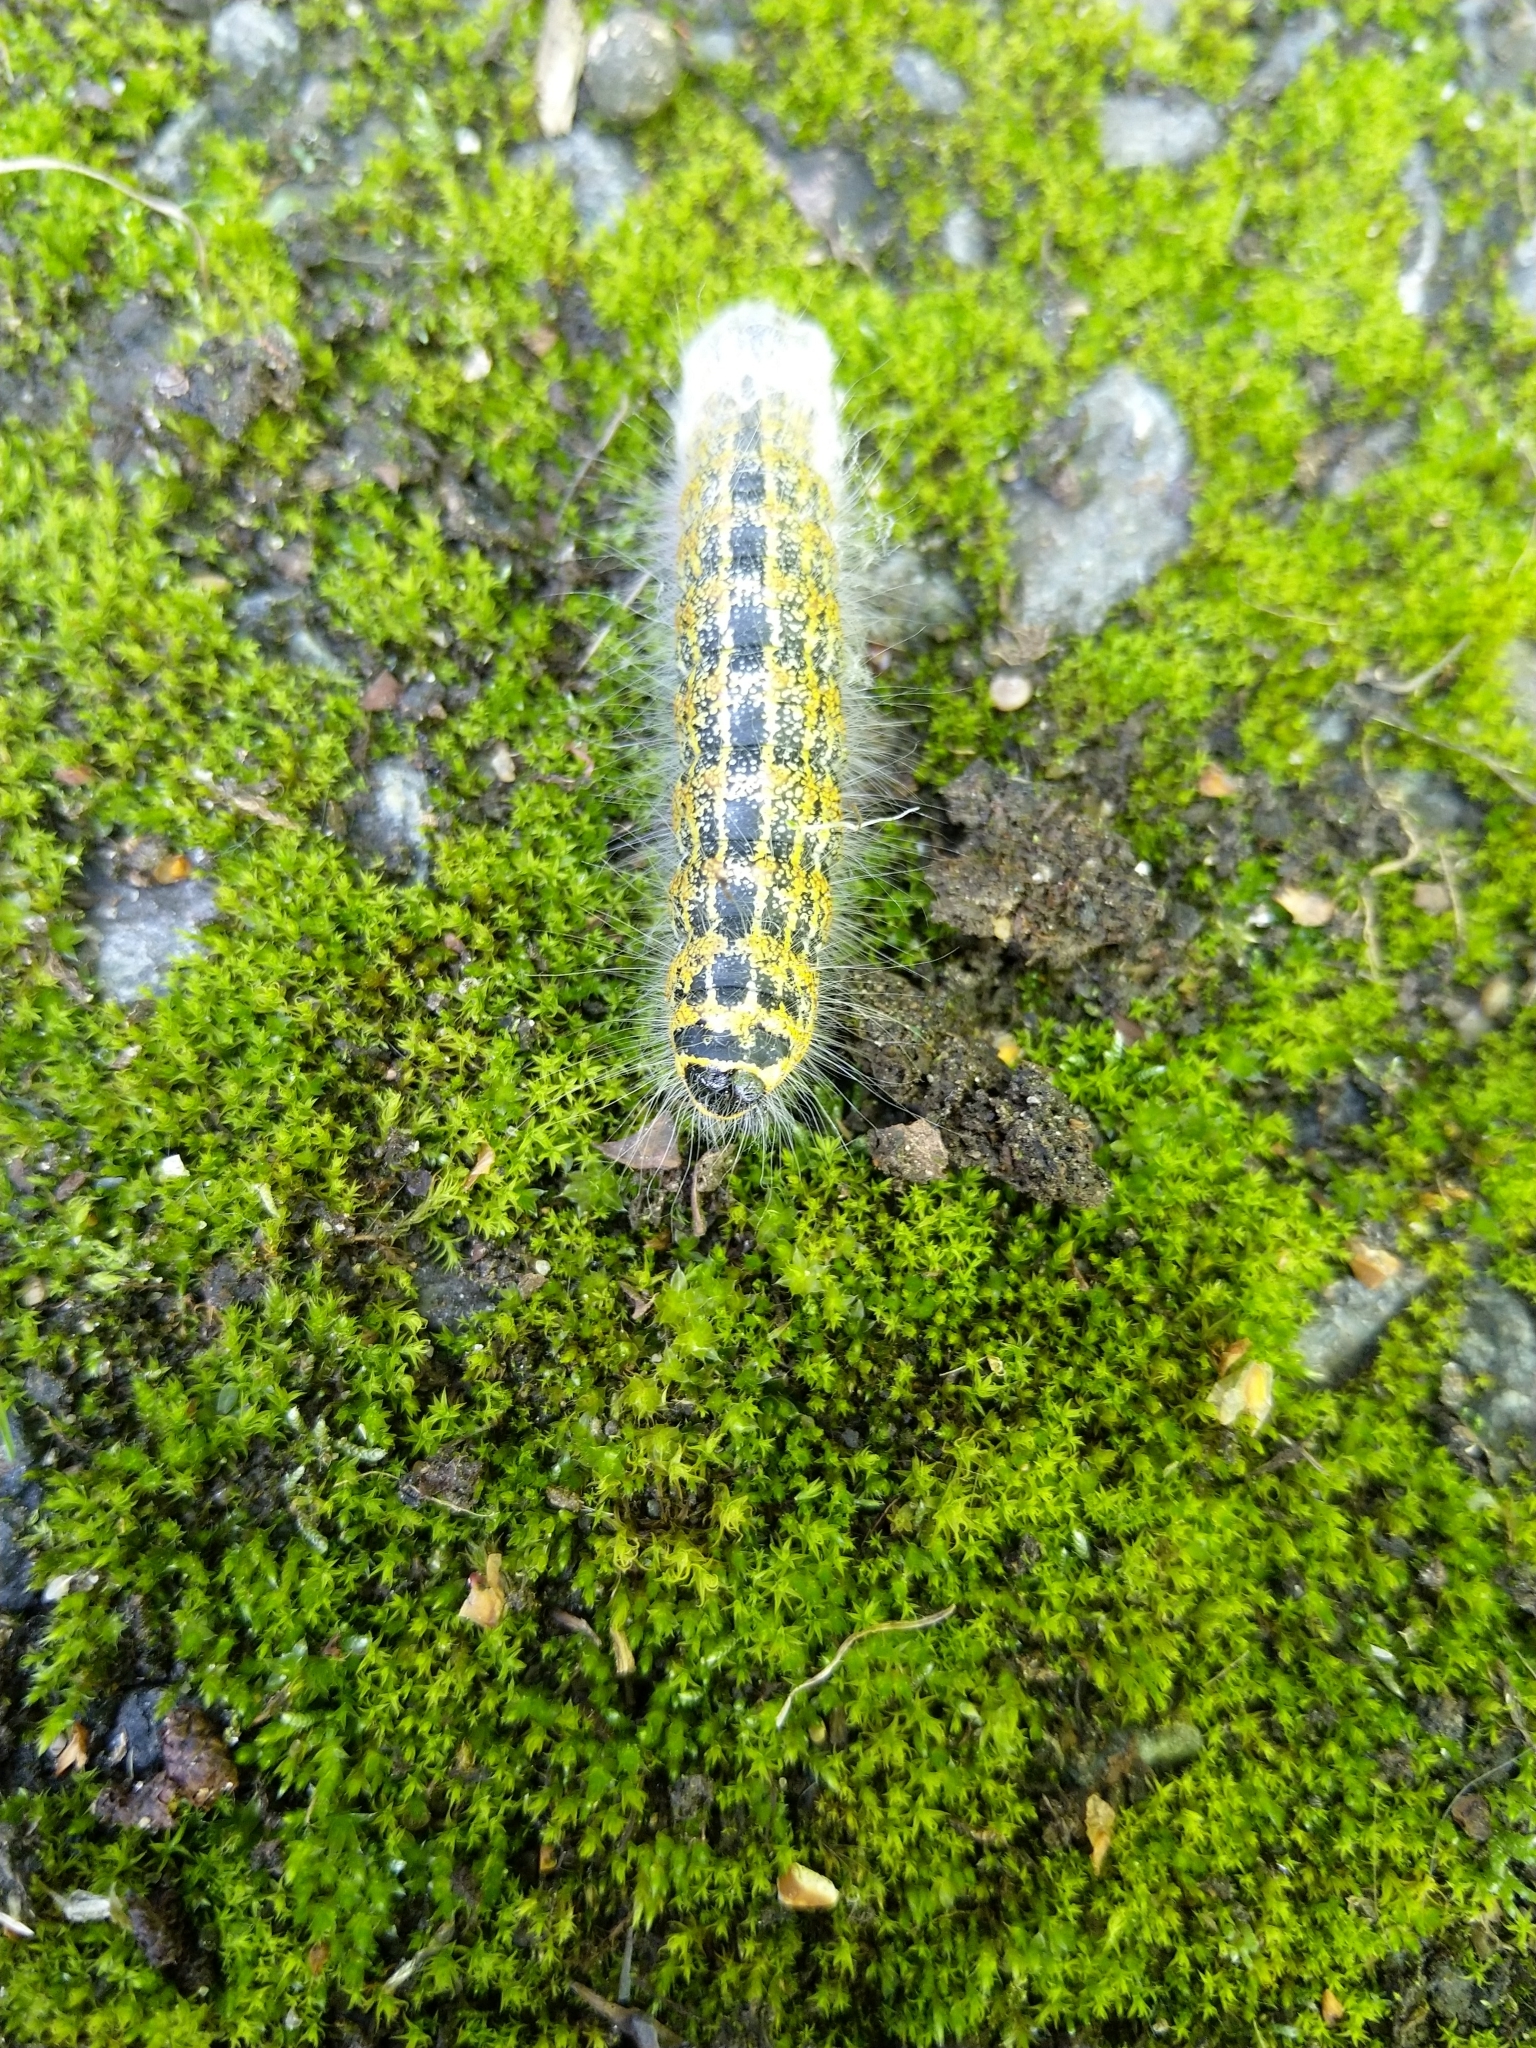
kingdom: Animalia
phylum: Arthropoda
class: Insecta
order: Lepidoptera
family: Notodontidae
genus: Phalera
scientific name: Phalera bucephala
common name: Buff-tip
